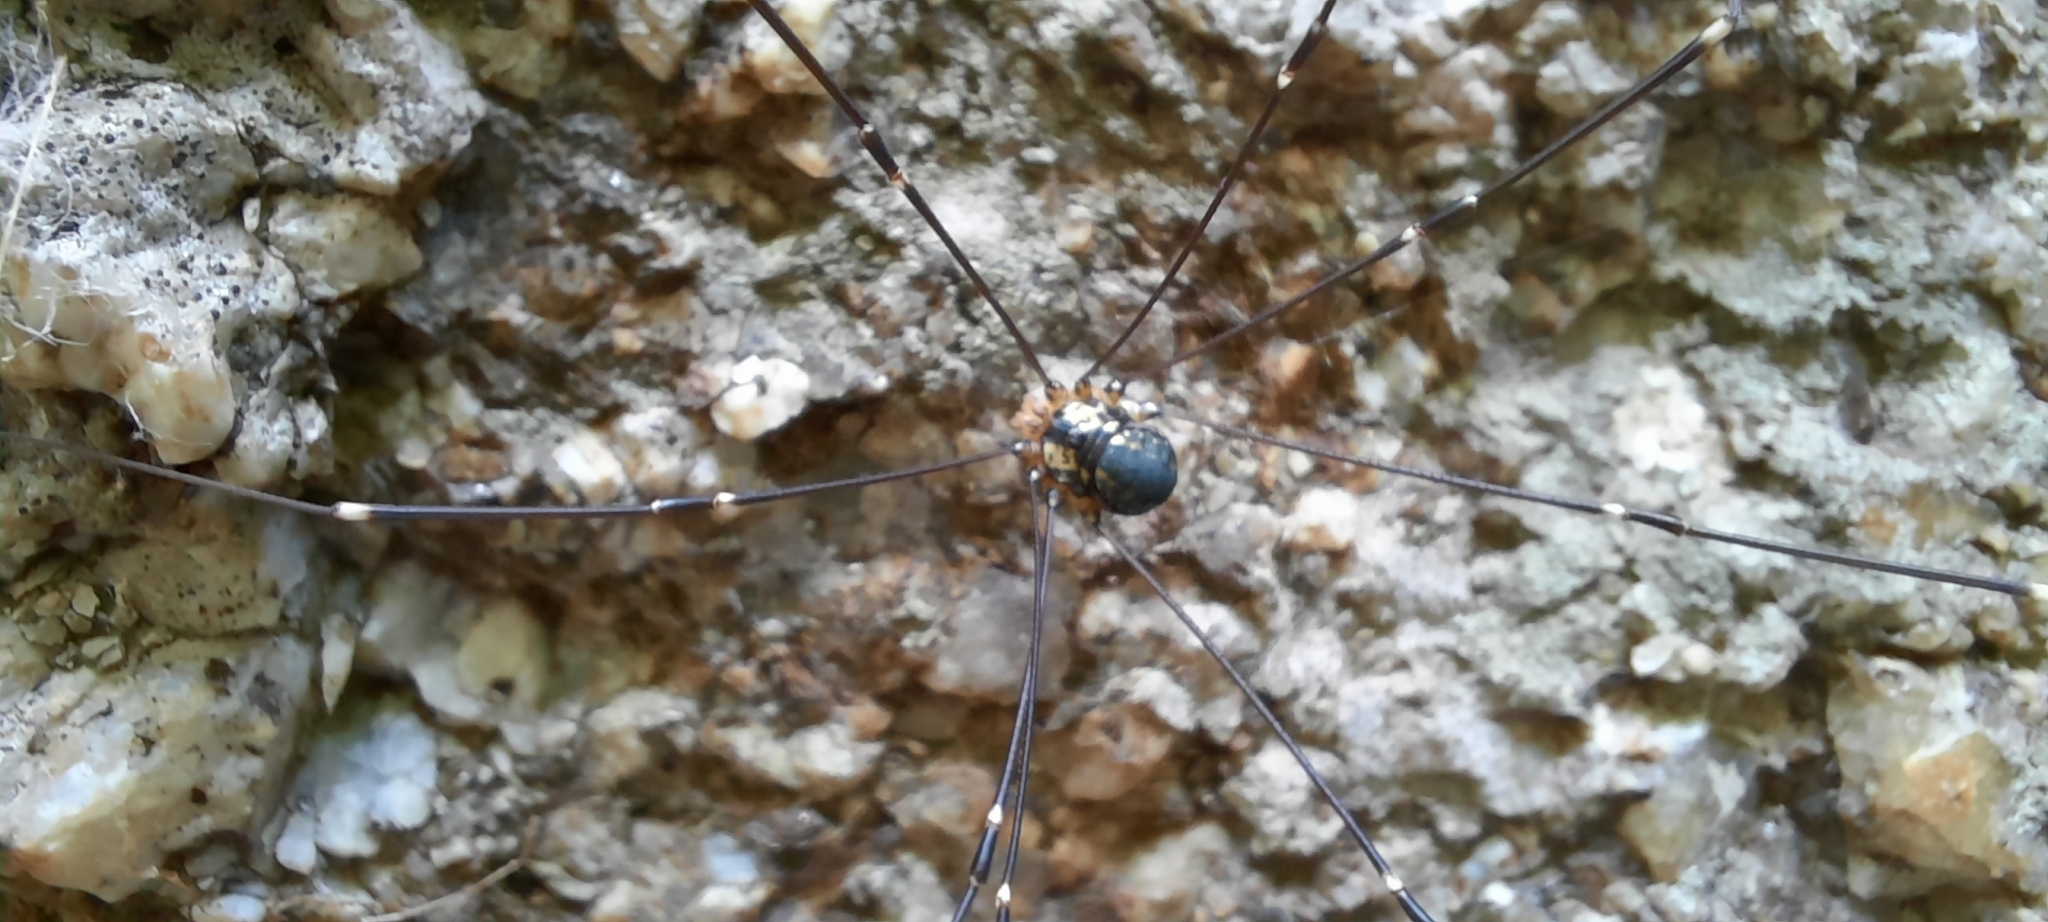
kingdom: Animalia
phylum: Arthropoda
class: Arachnida
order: Opiliones
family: Sclerosomatidae
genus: Leiobunum
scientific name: Leiobunum
